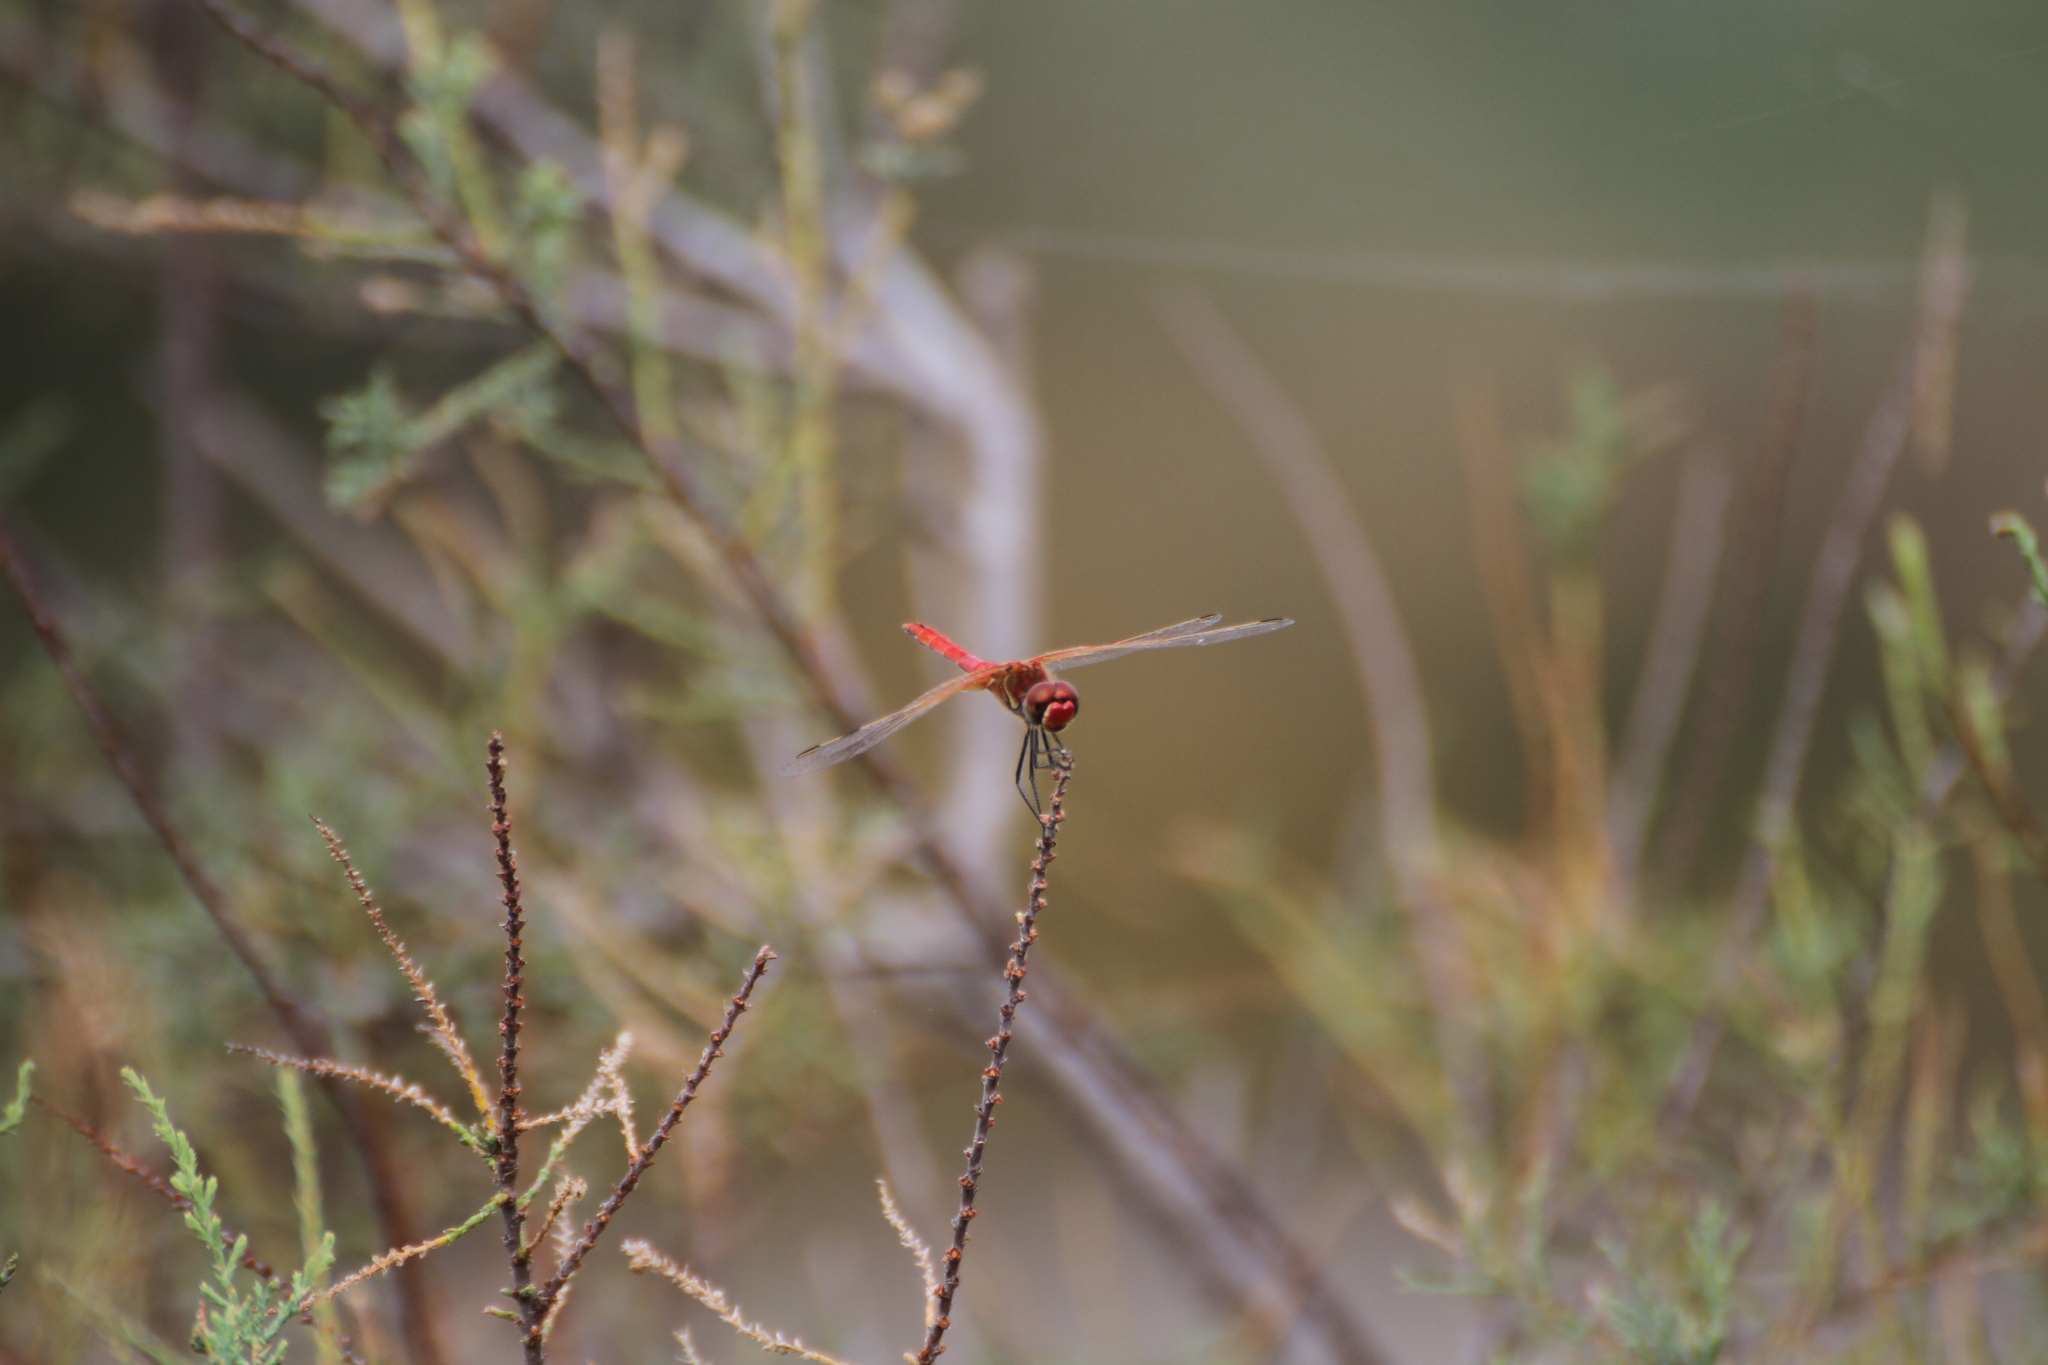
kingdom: Animalia
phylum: Arthropoda
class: Insecta
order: Odonata
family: Libellulidae
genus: Sympetrum
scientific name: Sympetrum fonscolombii
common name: Red-veined darter
